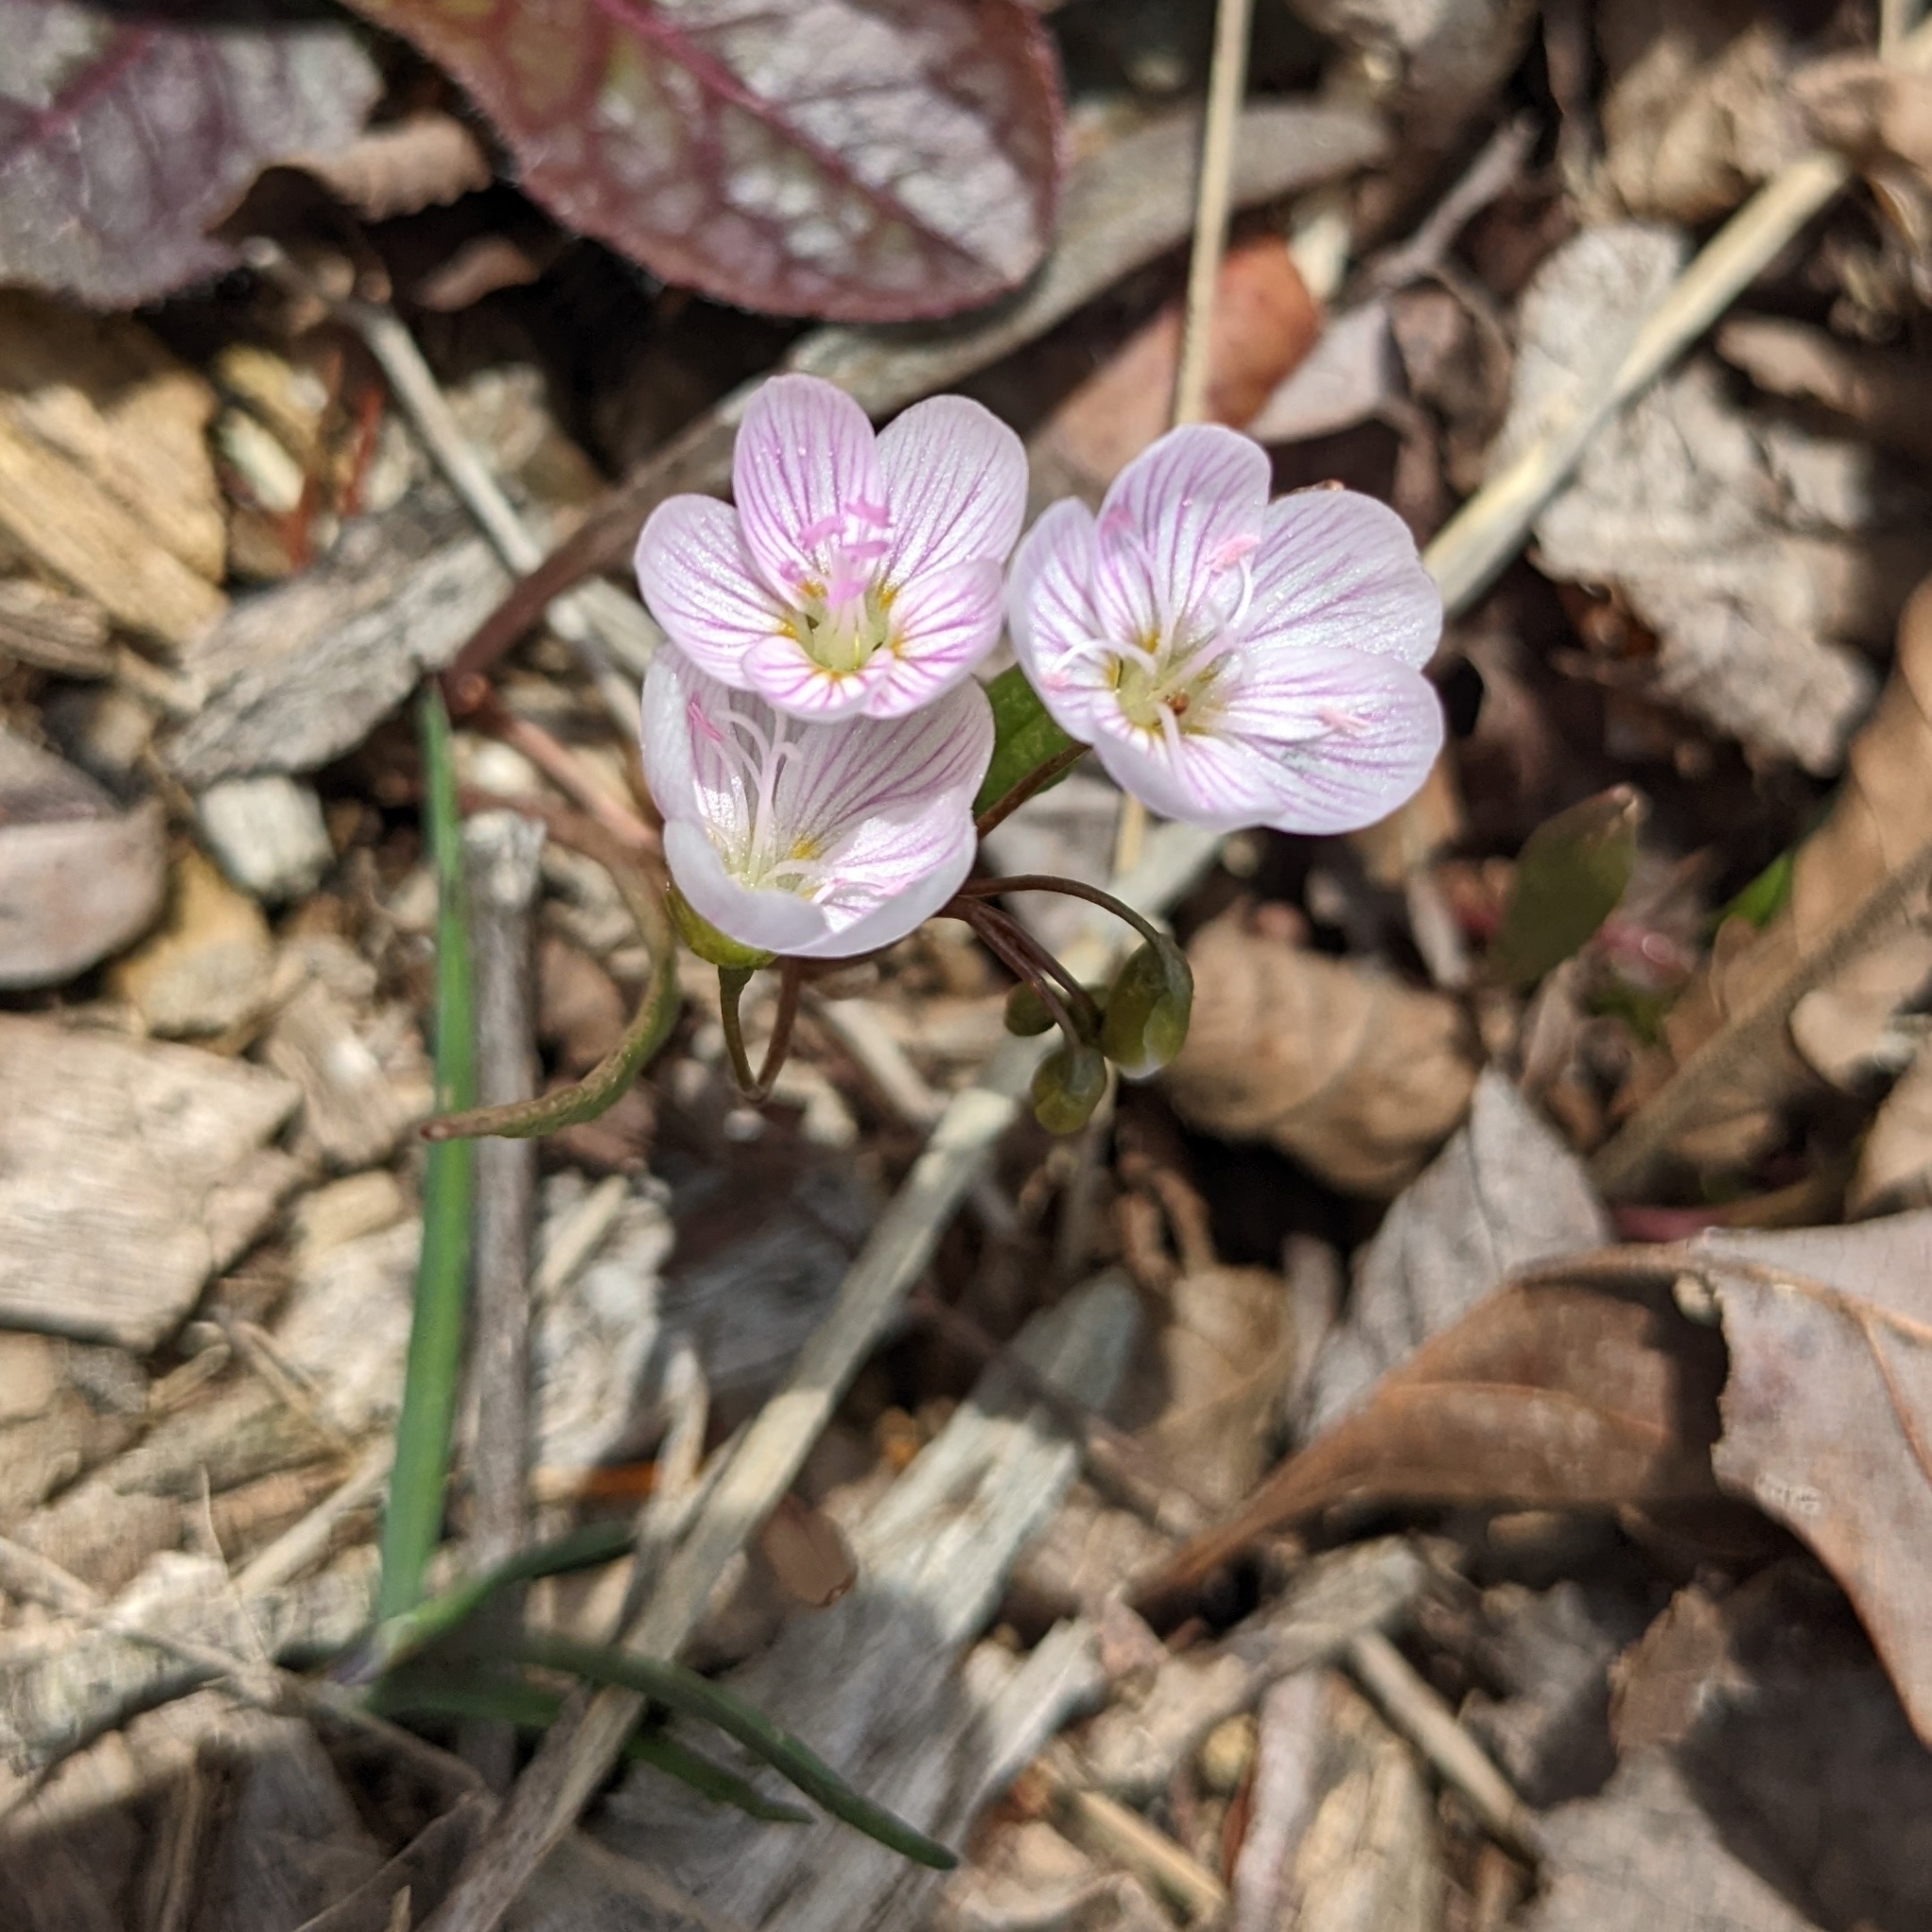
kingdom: Plantae
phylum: Tracheophyta
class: Magnoliopsida
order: Caryophyllales
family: Montiaceae
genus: Claytonia
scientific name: Claytonia virginica
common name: Virginia springbeauty
